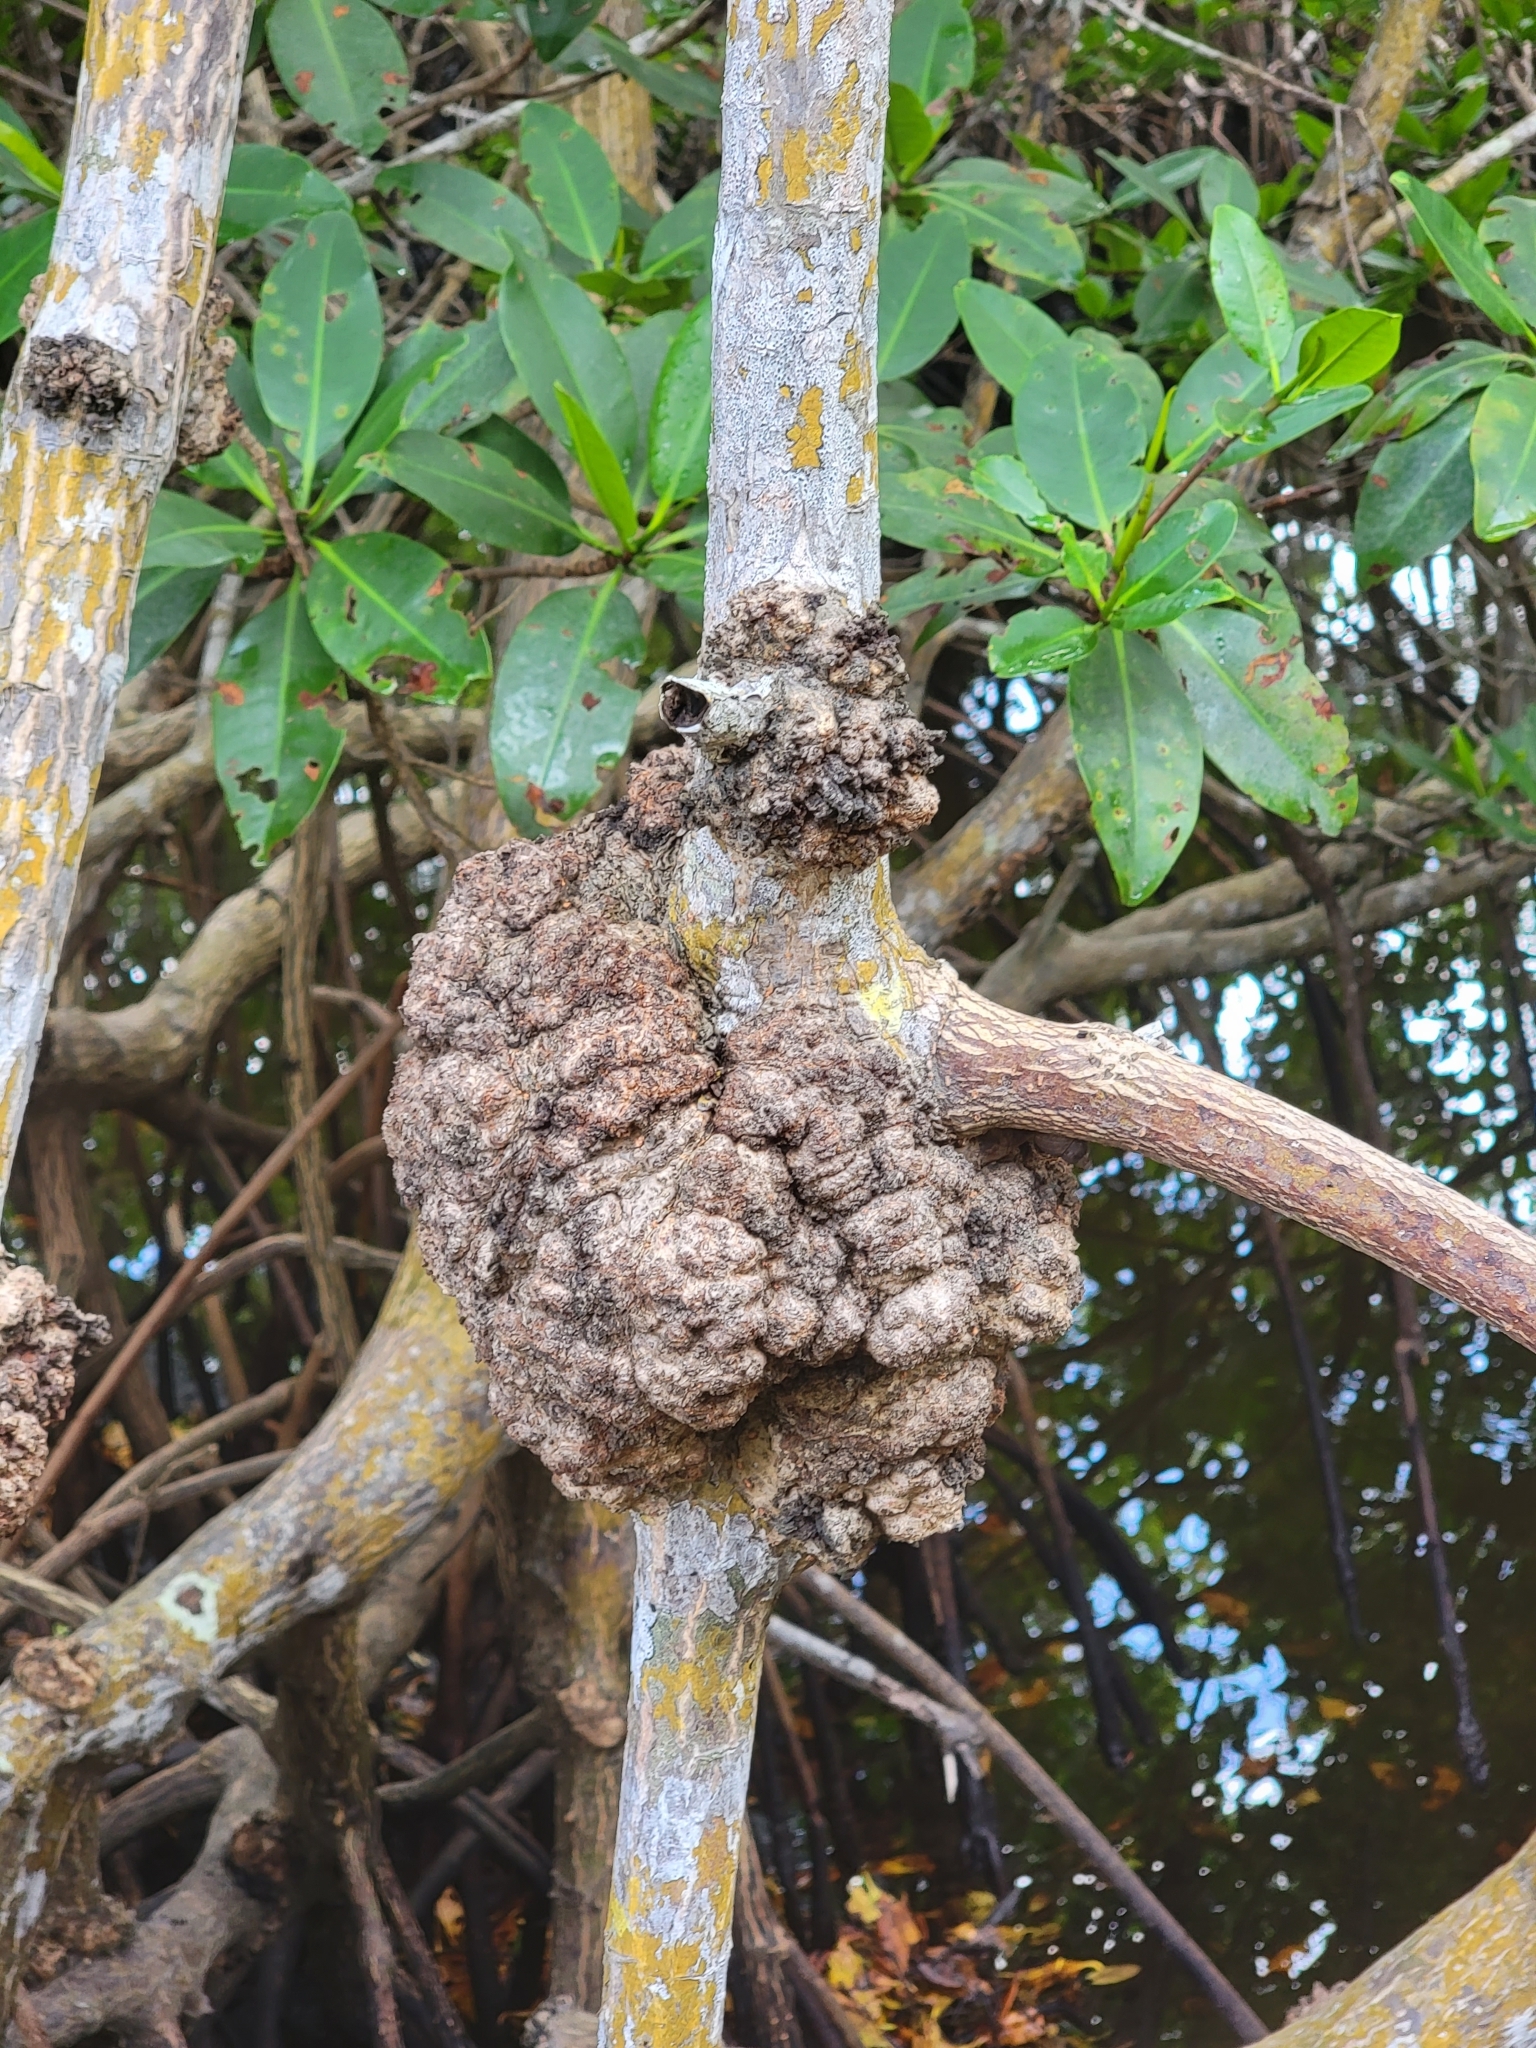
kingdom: Plantae
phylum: Tracheophyta
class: Magnoliopsida
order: Malpighiales
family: Rhizophoraceae
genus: Rhizophora
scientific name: Rhizophora mangle
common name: Red mangrove
